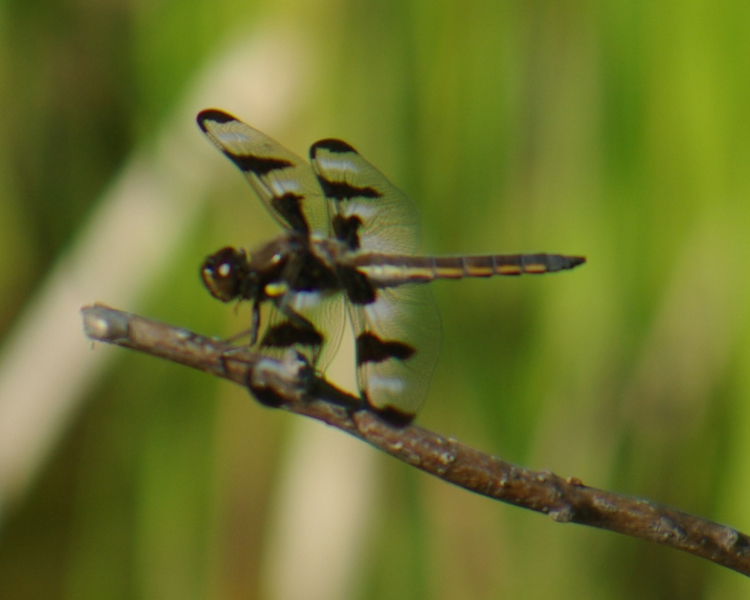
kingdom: Animalia
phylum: Arthropoda
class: Insecta
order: Odonata
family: Libellulidae
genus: Libellula
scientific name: Libellula pulchella
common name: Twelve-spotted skimmer
